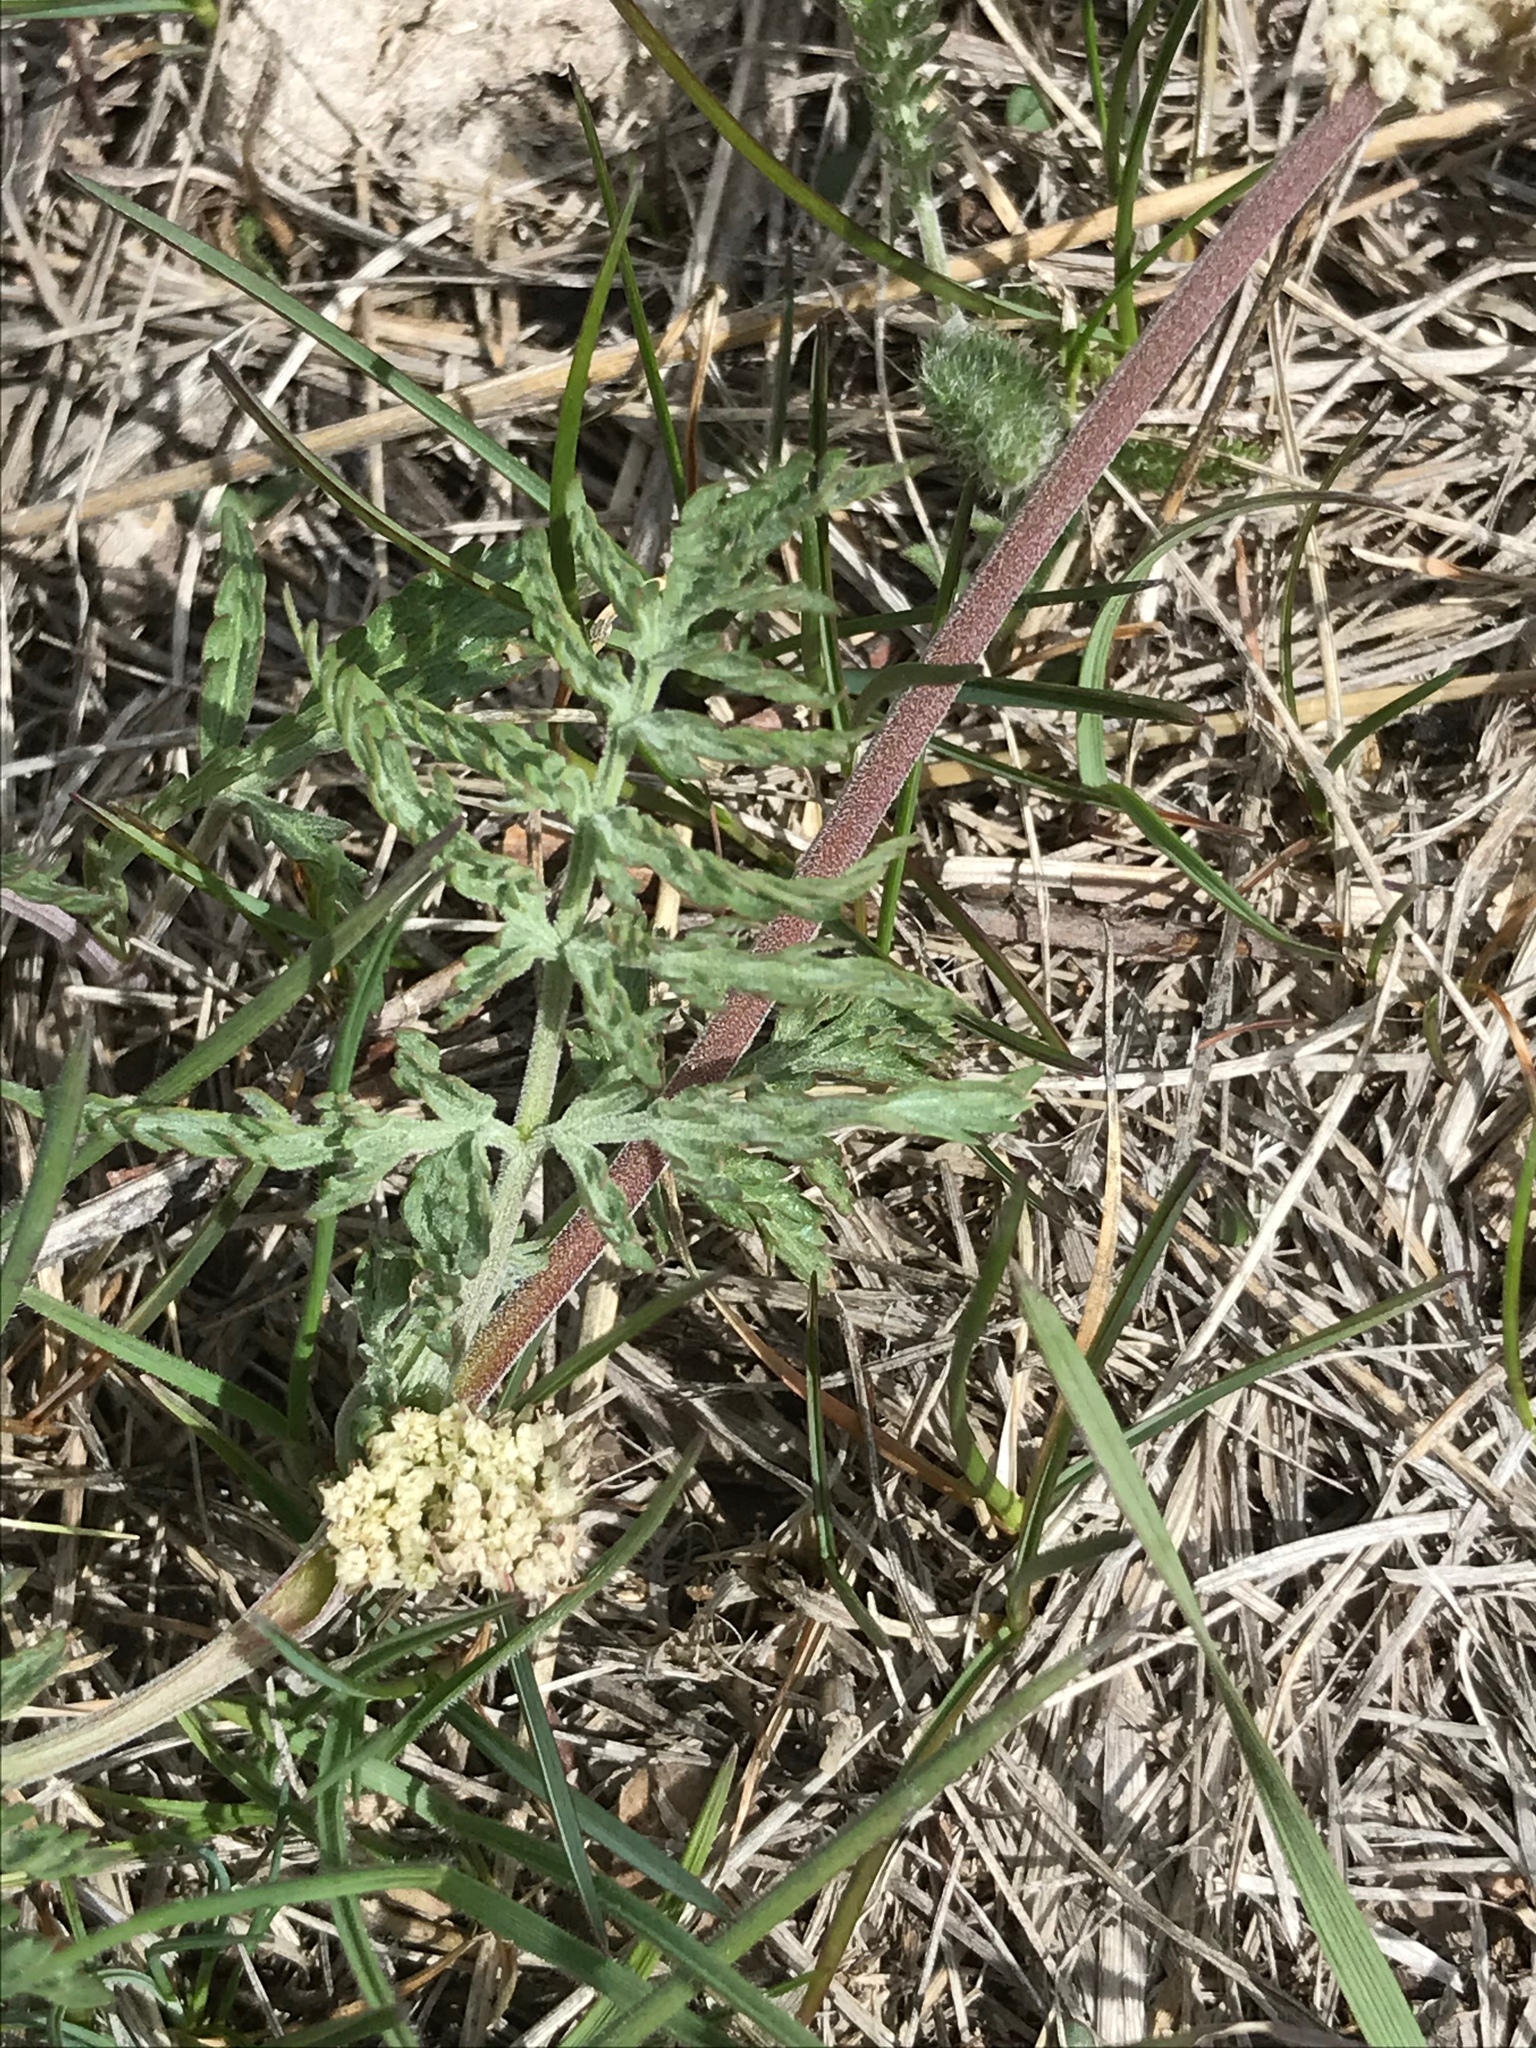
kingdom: Plantae
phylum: Tracheophyta
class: Magnoliopsida
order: Apiales
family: Apiaceae
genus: Lomatium
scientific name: Lomatium orientale
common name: Eastern cous
